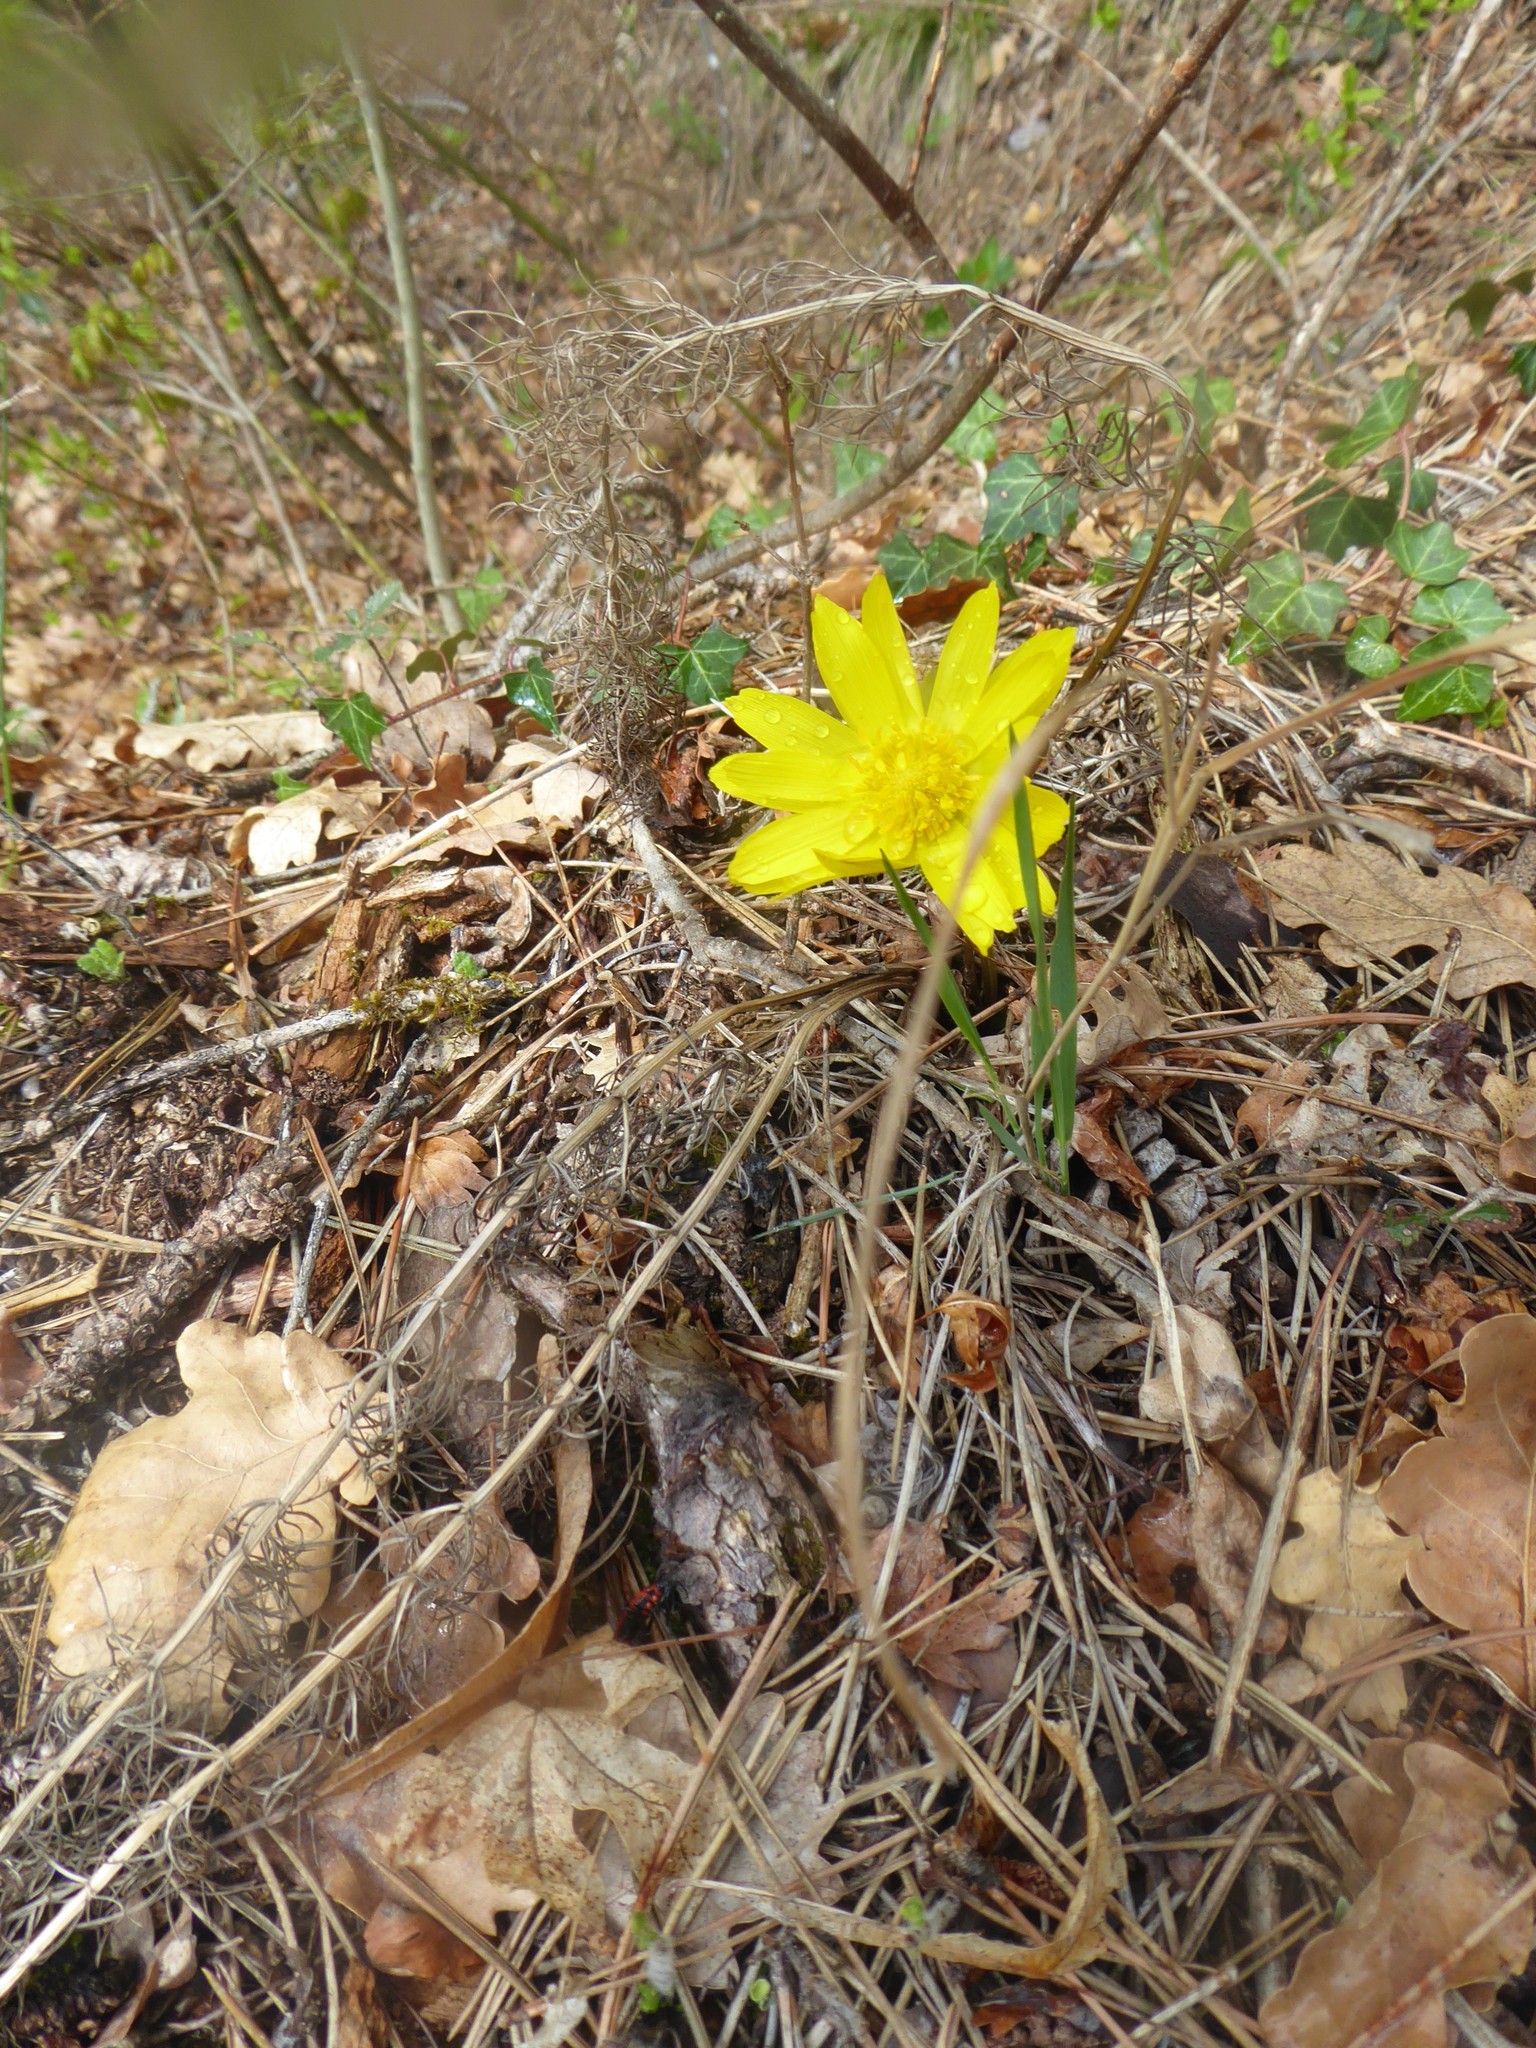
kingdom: Plantae
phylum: Tracheophyta
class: Magnoliopsida
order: Ranunculales
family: Ranunculaceae
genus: Adonis
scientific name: Adonis vernalis
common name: Yellow pheasants-eye
